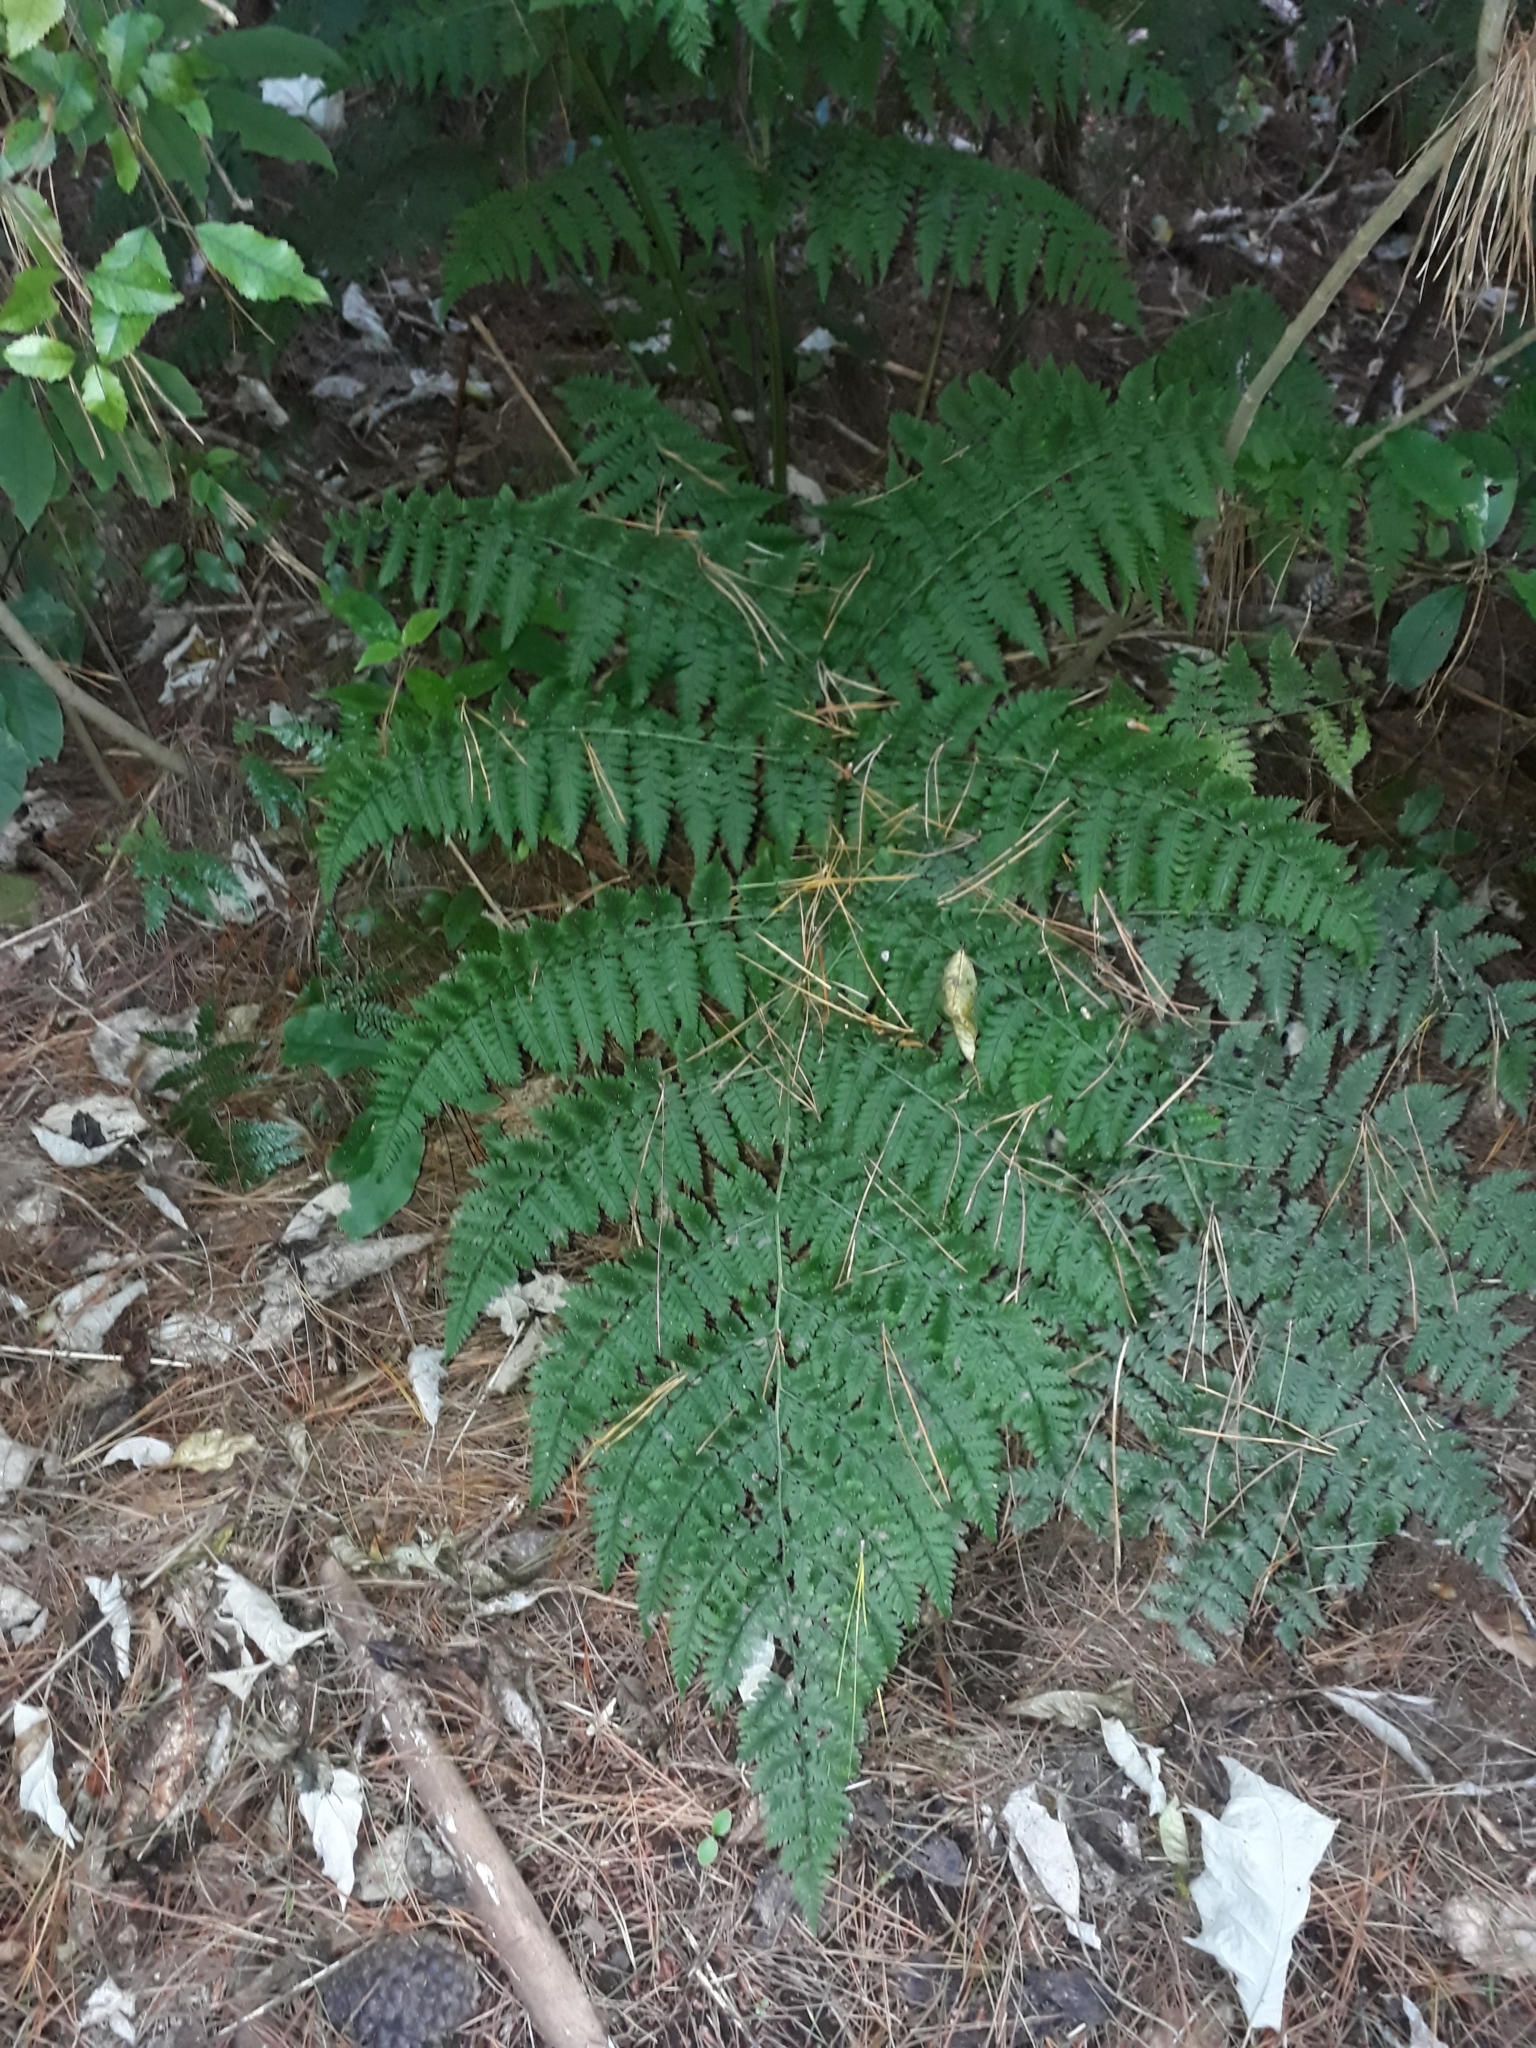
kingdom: Plantae
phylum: Tracheophyta
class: Polypodiopsida
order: Polypodiales
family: Athyriaceae
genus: Diplazium
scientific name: Diplazium australe
